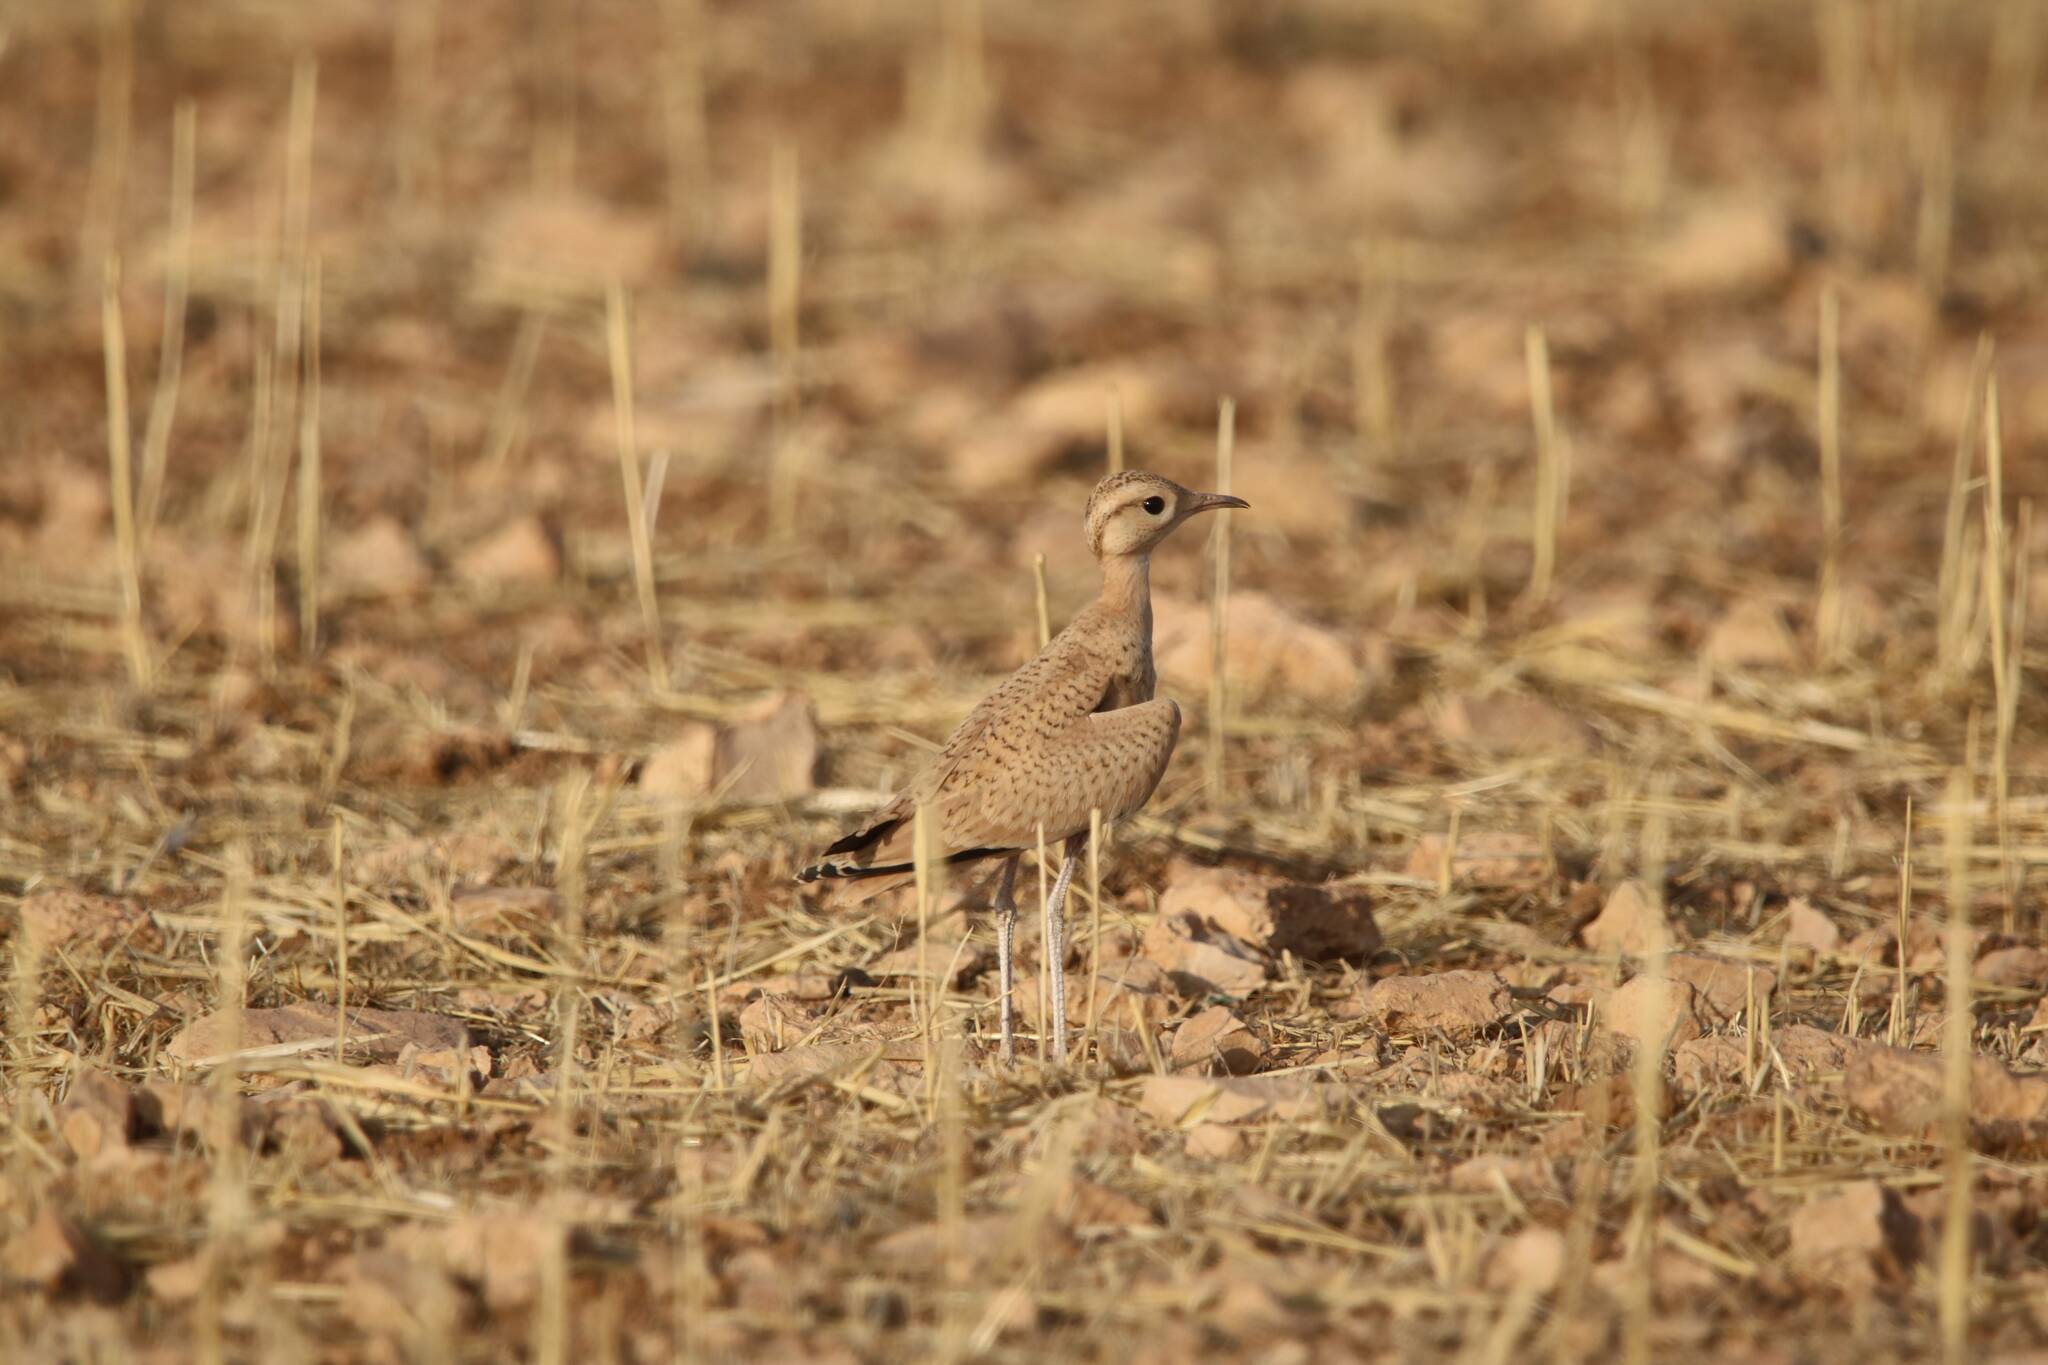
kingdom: Animalia
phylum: Chordata
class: Aves
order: Charadriiformes
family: Glareolidae
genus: Cursorius
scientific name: Cursorius cursor
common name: Cream-colored courser
